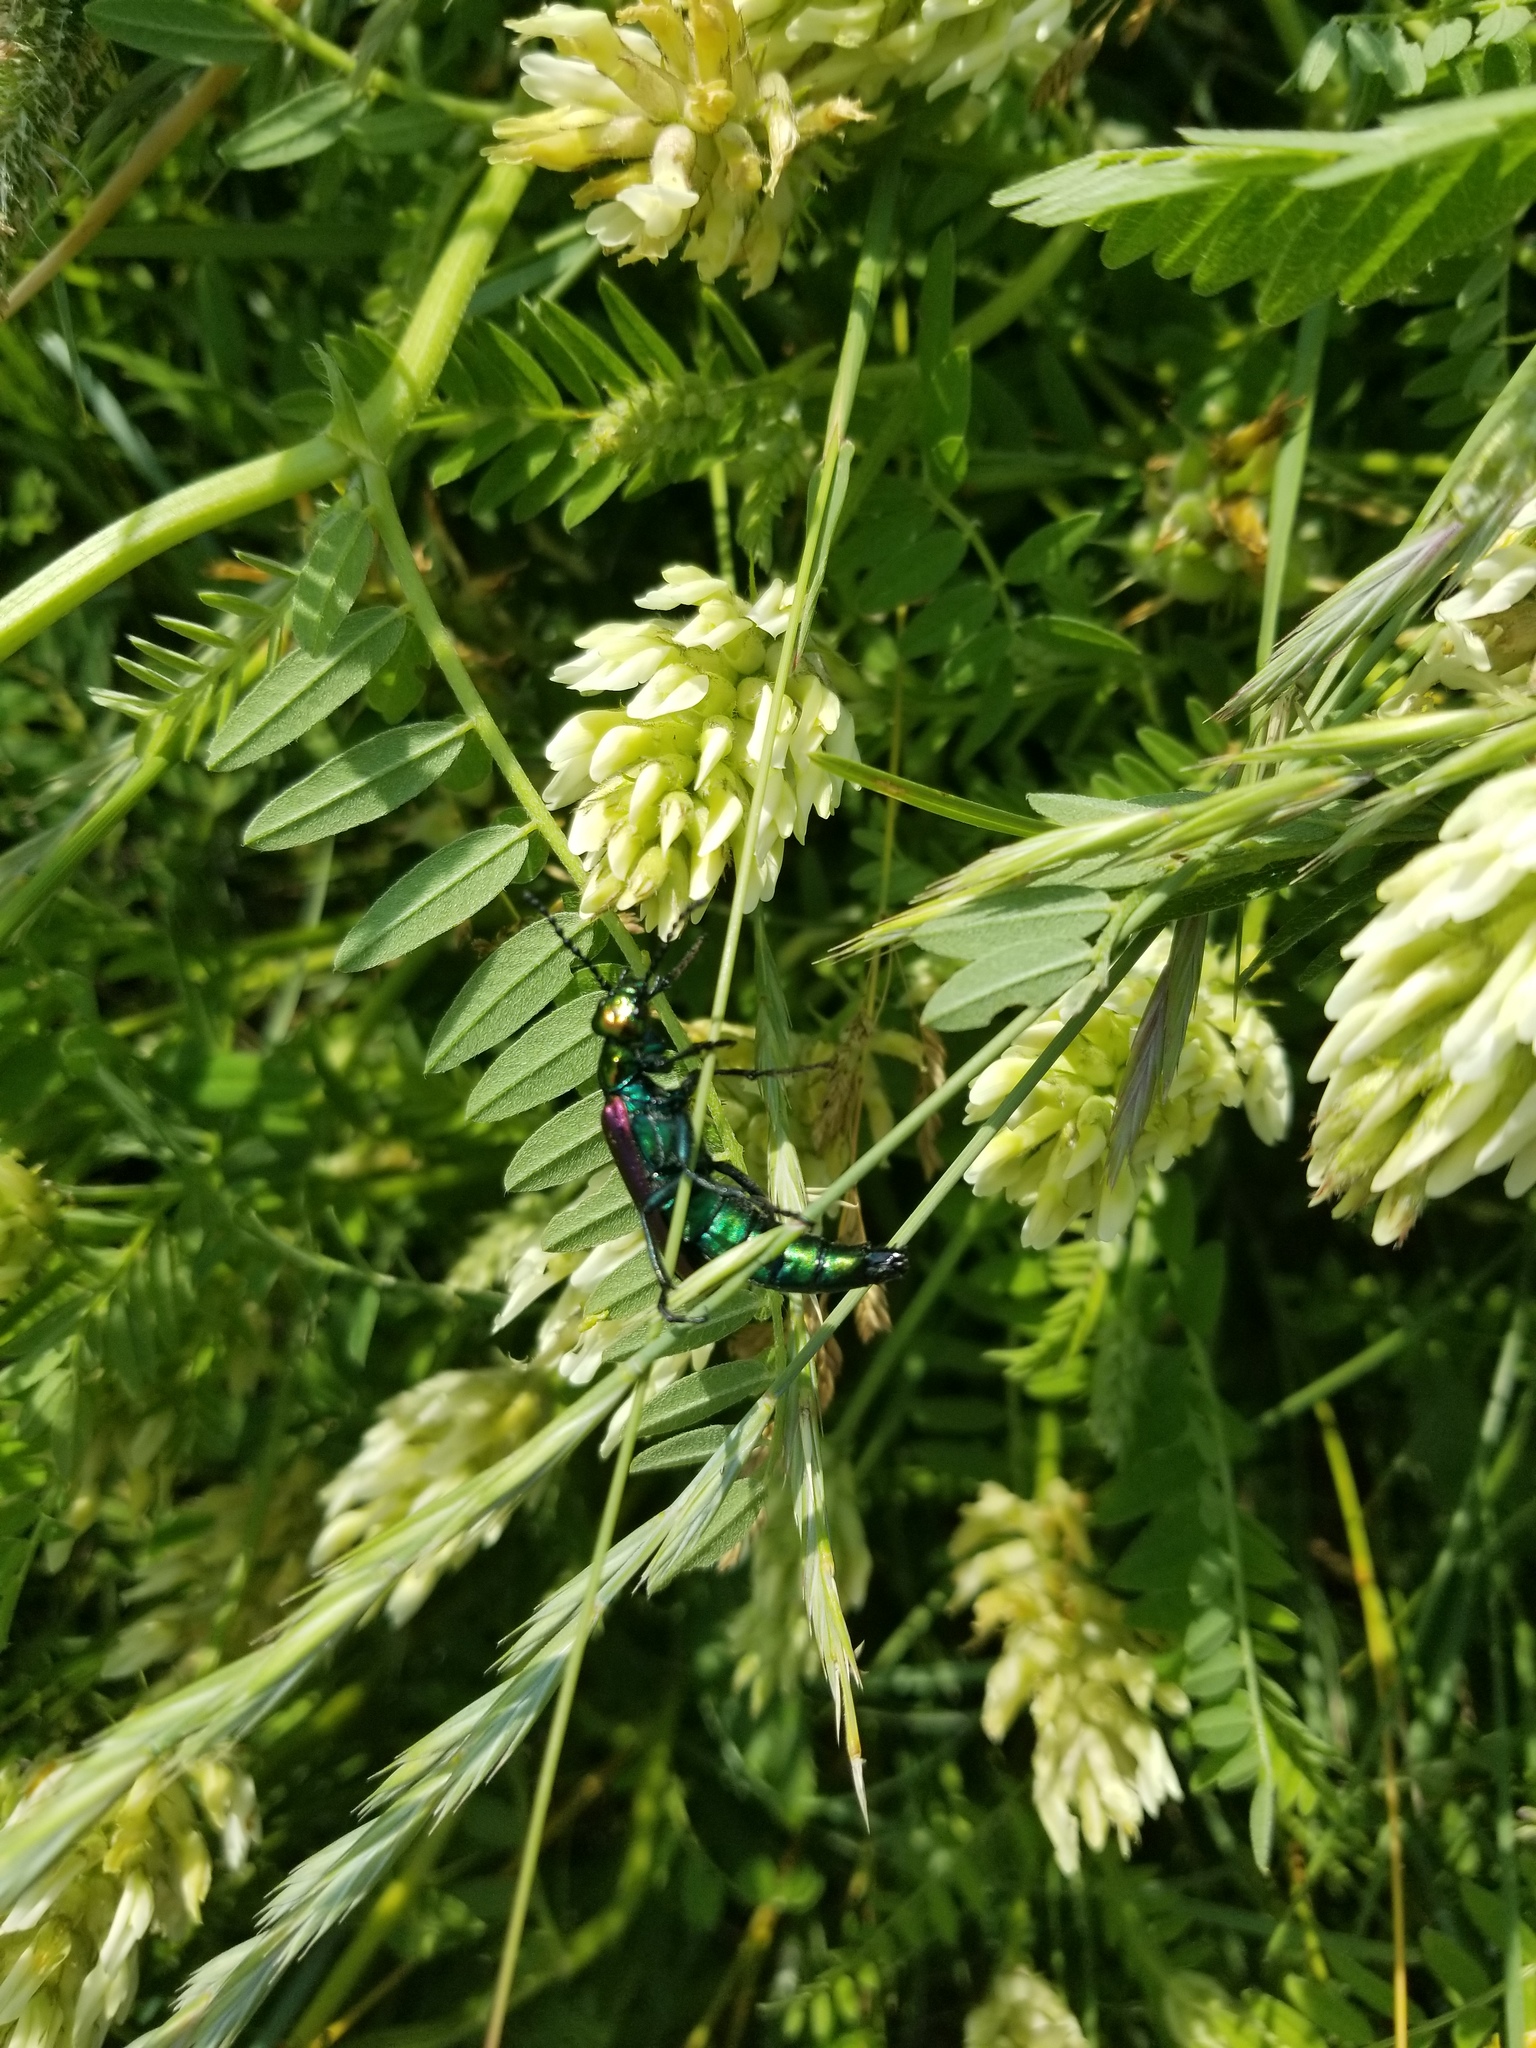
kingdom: Animalia
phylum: Arthropoda
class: Insecta
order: Coleoptera
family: Meloidae
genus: Lytta
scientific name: Lytta nuttallii
